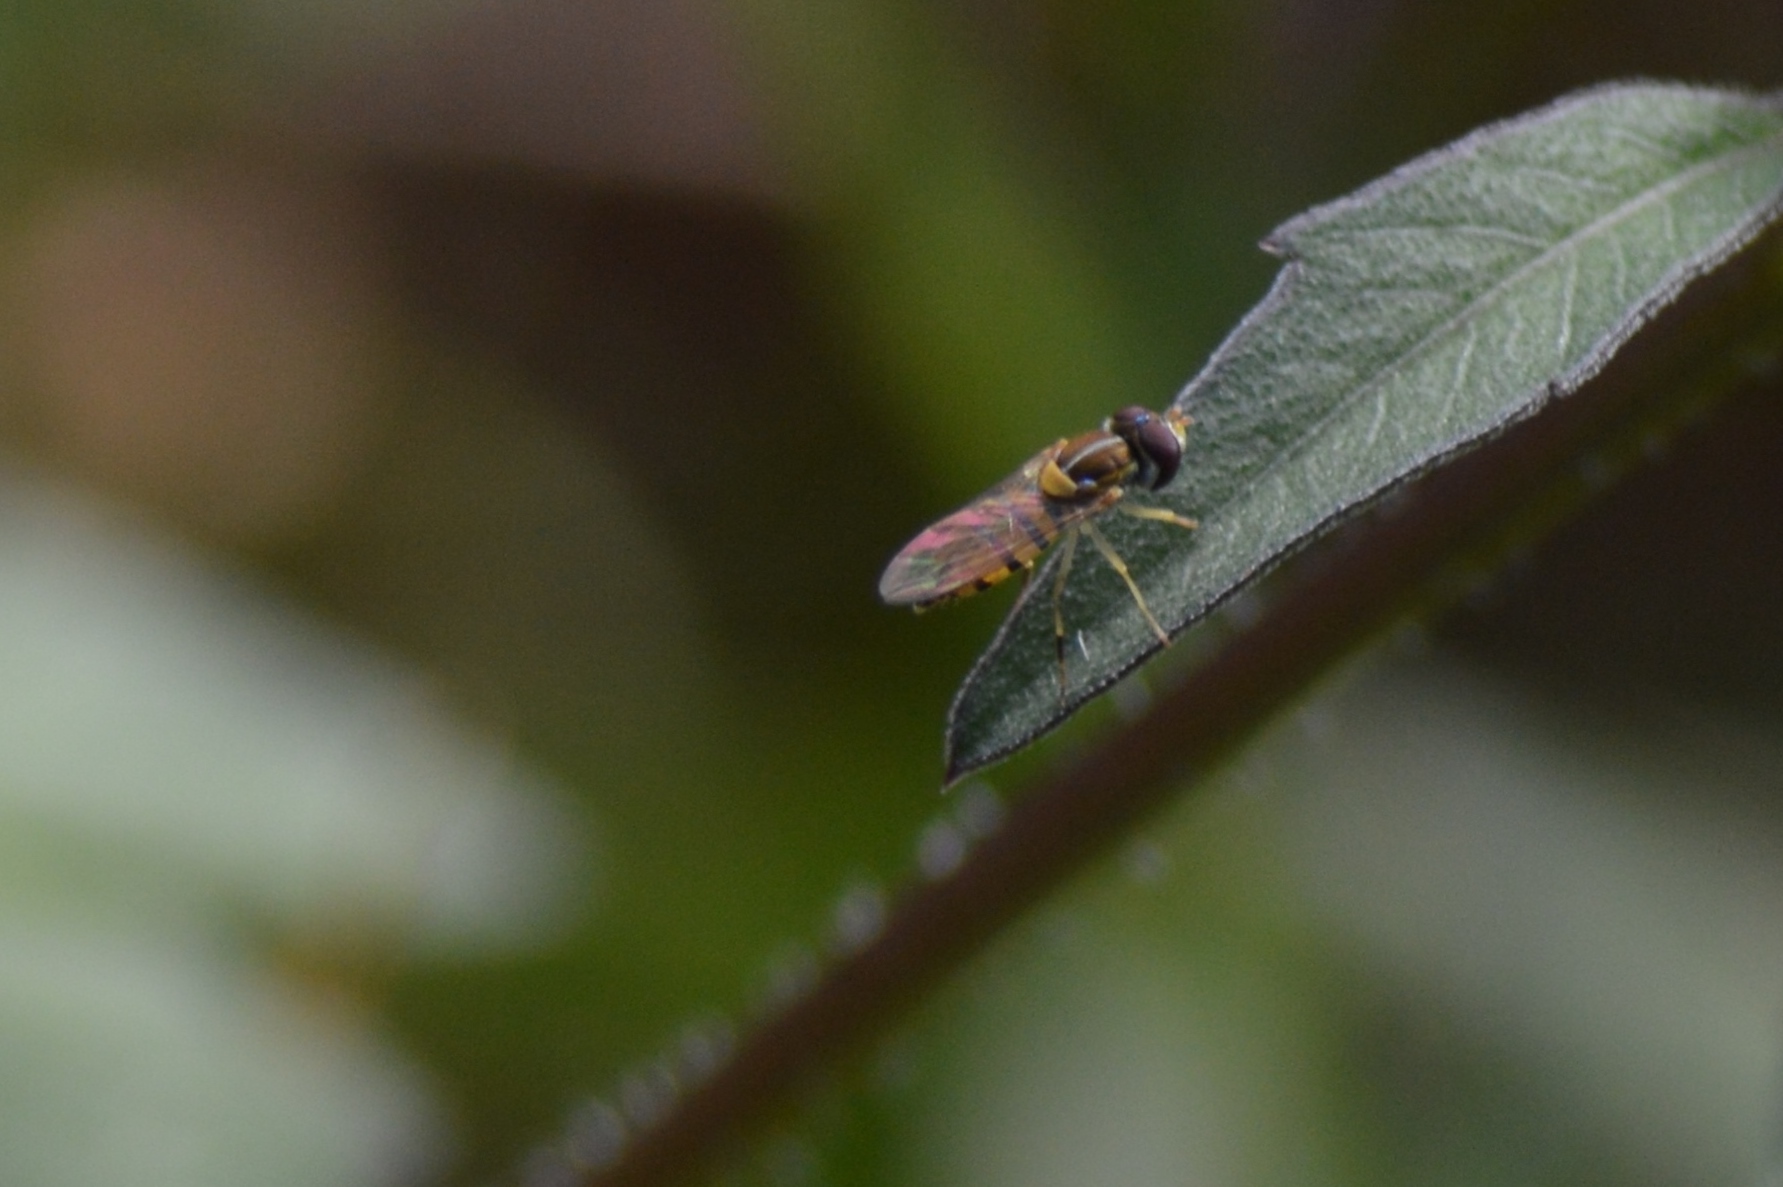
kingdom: Animalia
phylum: Arthropoda
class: Insecta
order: Diptera
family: Syrphidae
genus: Toxomerus
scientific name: Toxomerus
